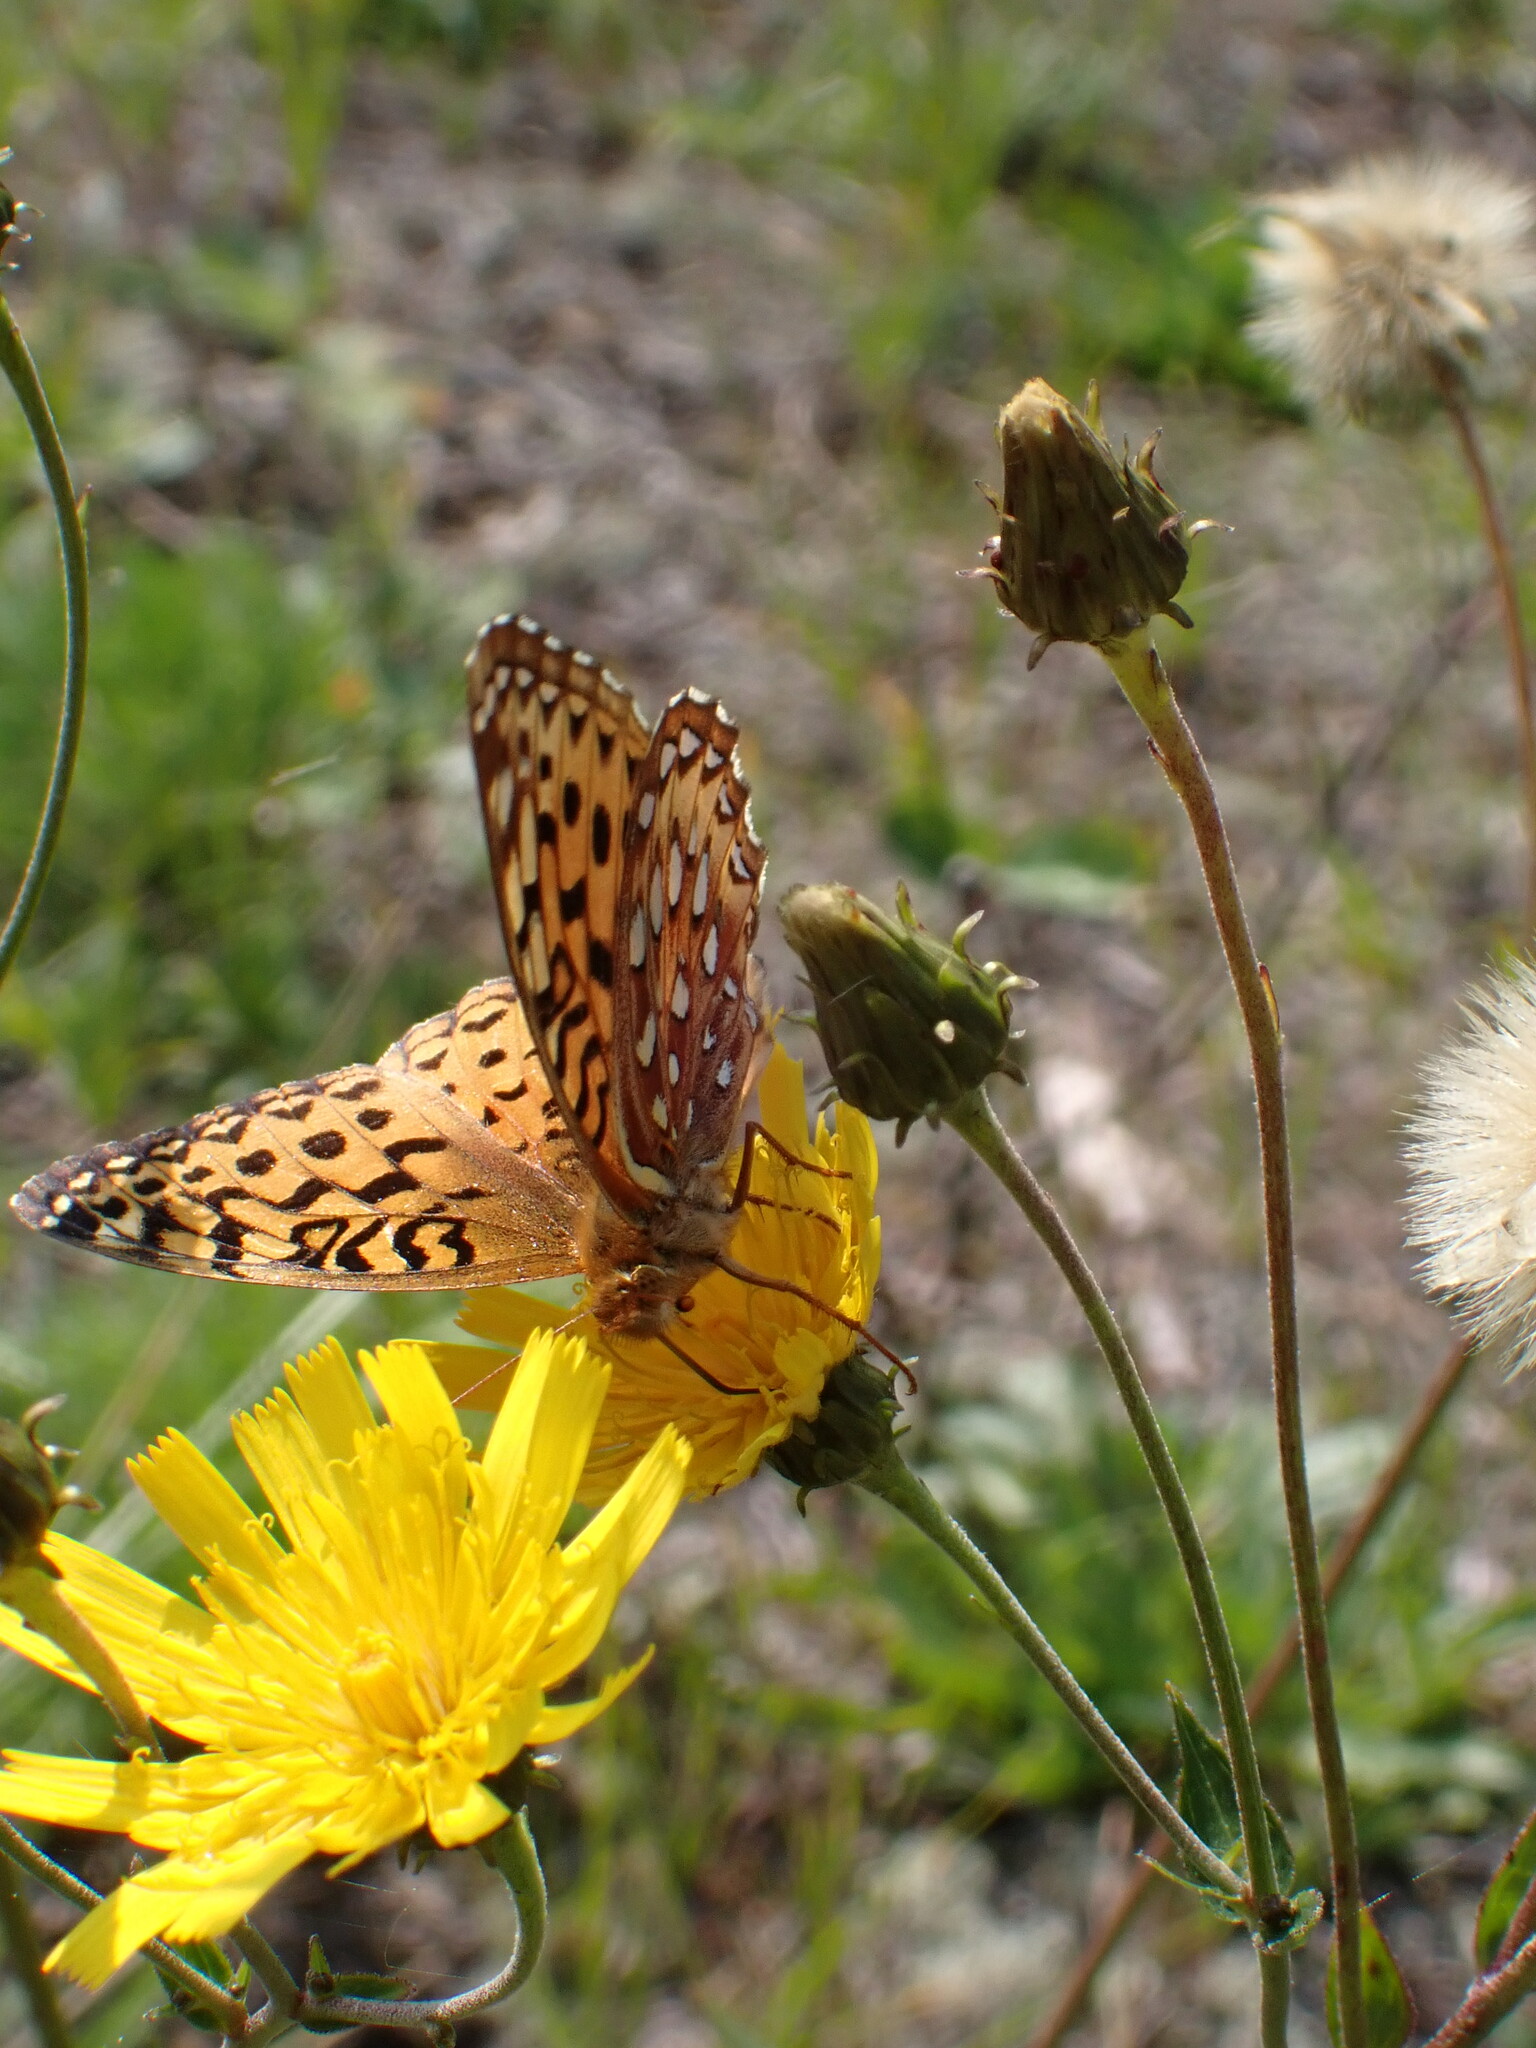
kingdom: Animalia
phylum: Arthropoda
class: Insecta
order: Lepidoptera
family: Nymphalidae
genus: Speyeria
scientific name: Speyeria aphrodite
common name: Aphrodite friitllary
